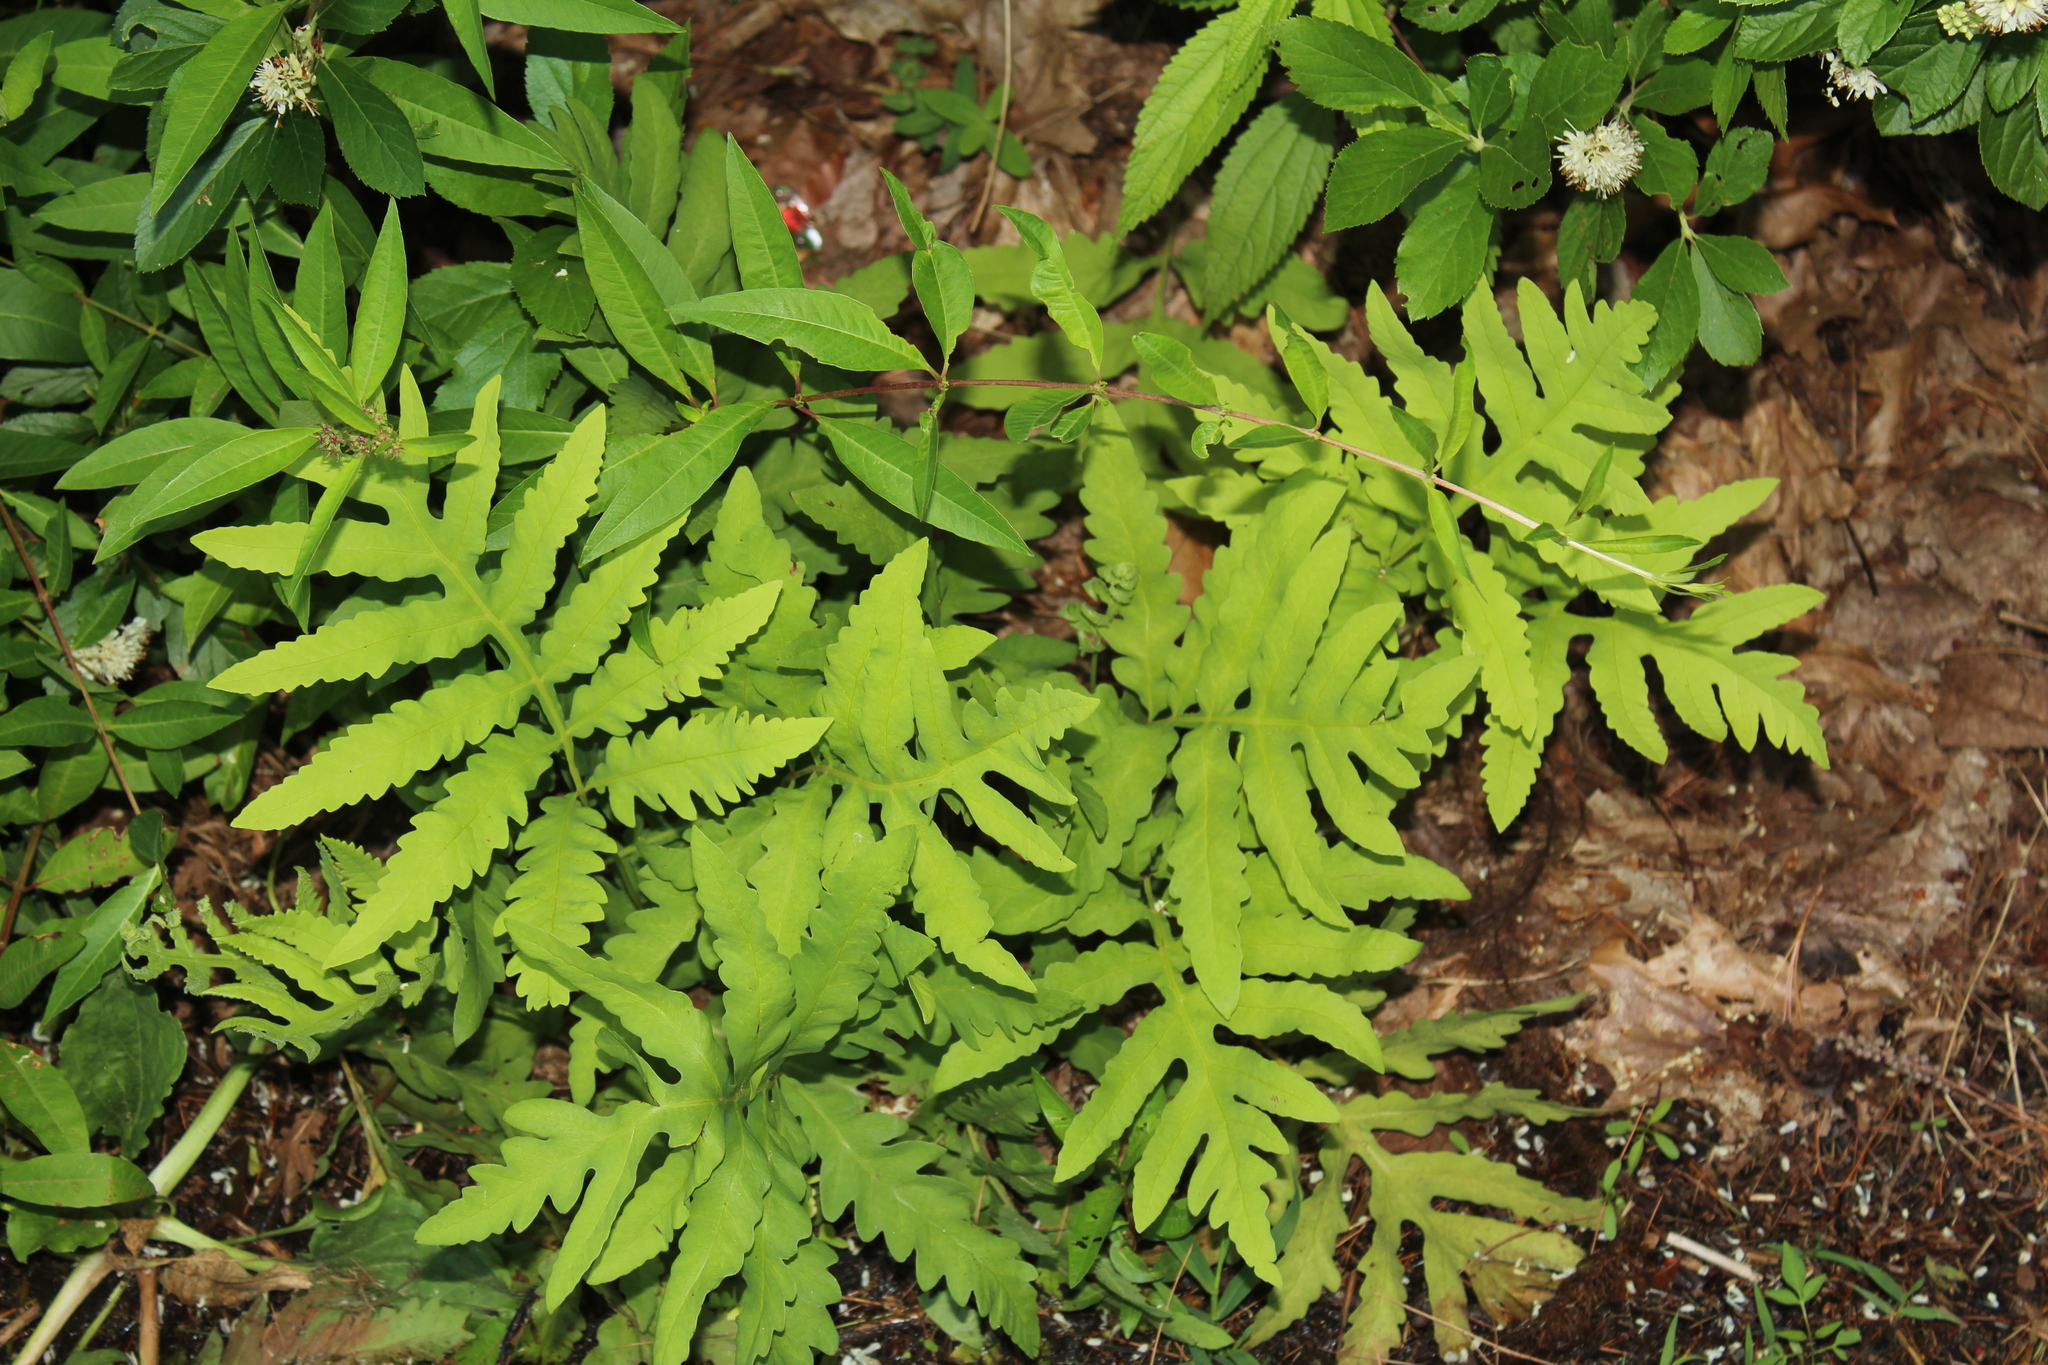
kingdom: Plantae
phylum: Tracheophyta
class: Polypodiopsida
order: Polypodiales
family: Onocleaceae
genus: Onoclea
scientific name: Onoclea sensibilis
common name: Sensitive fern
